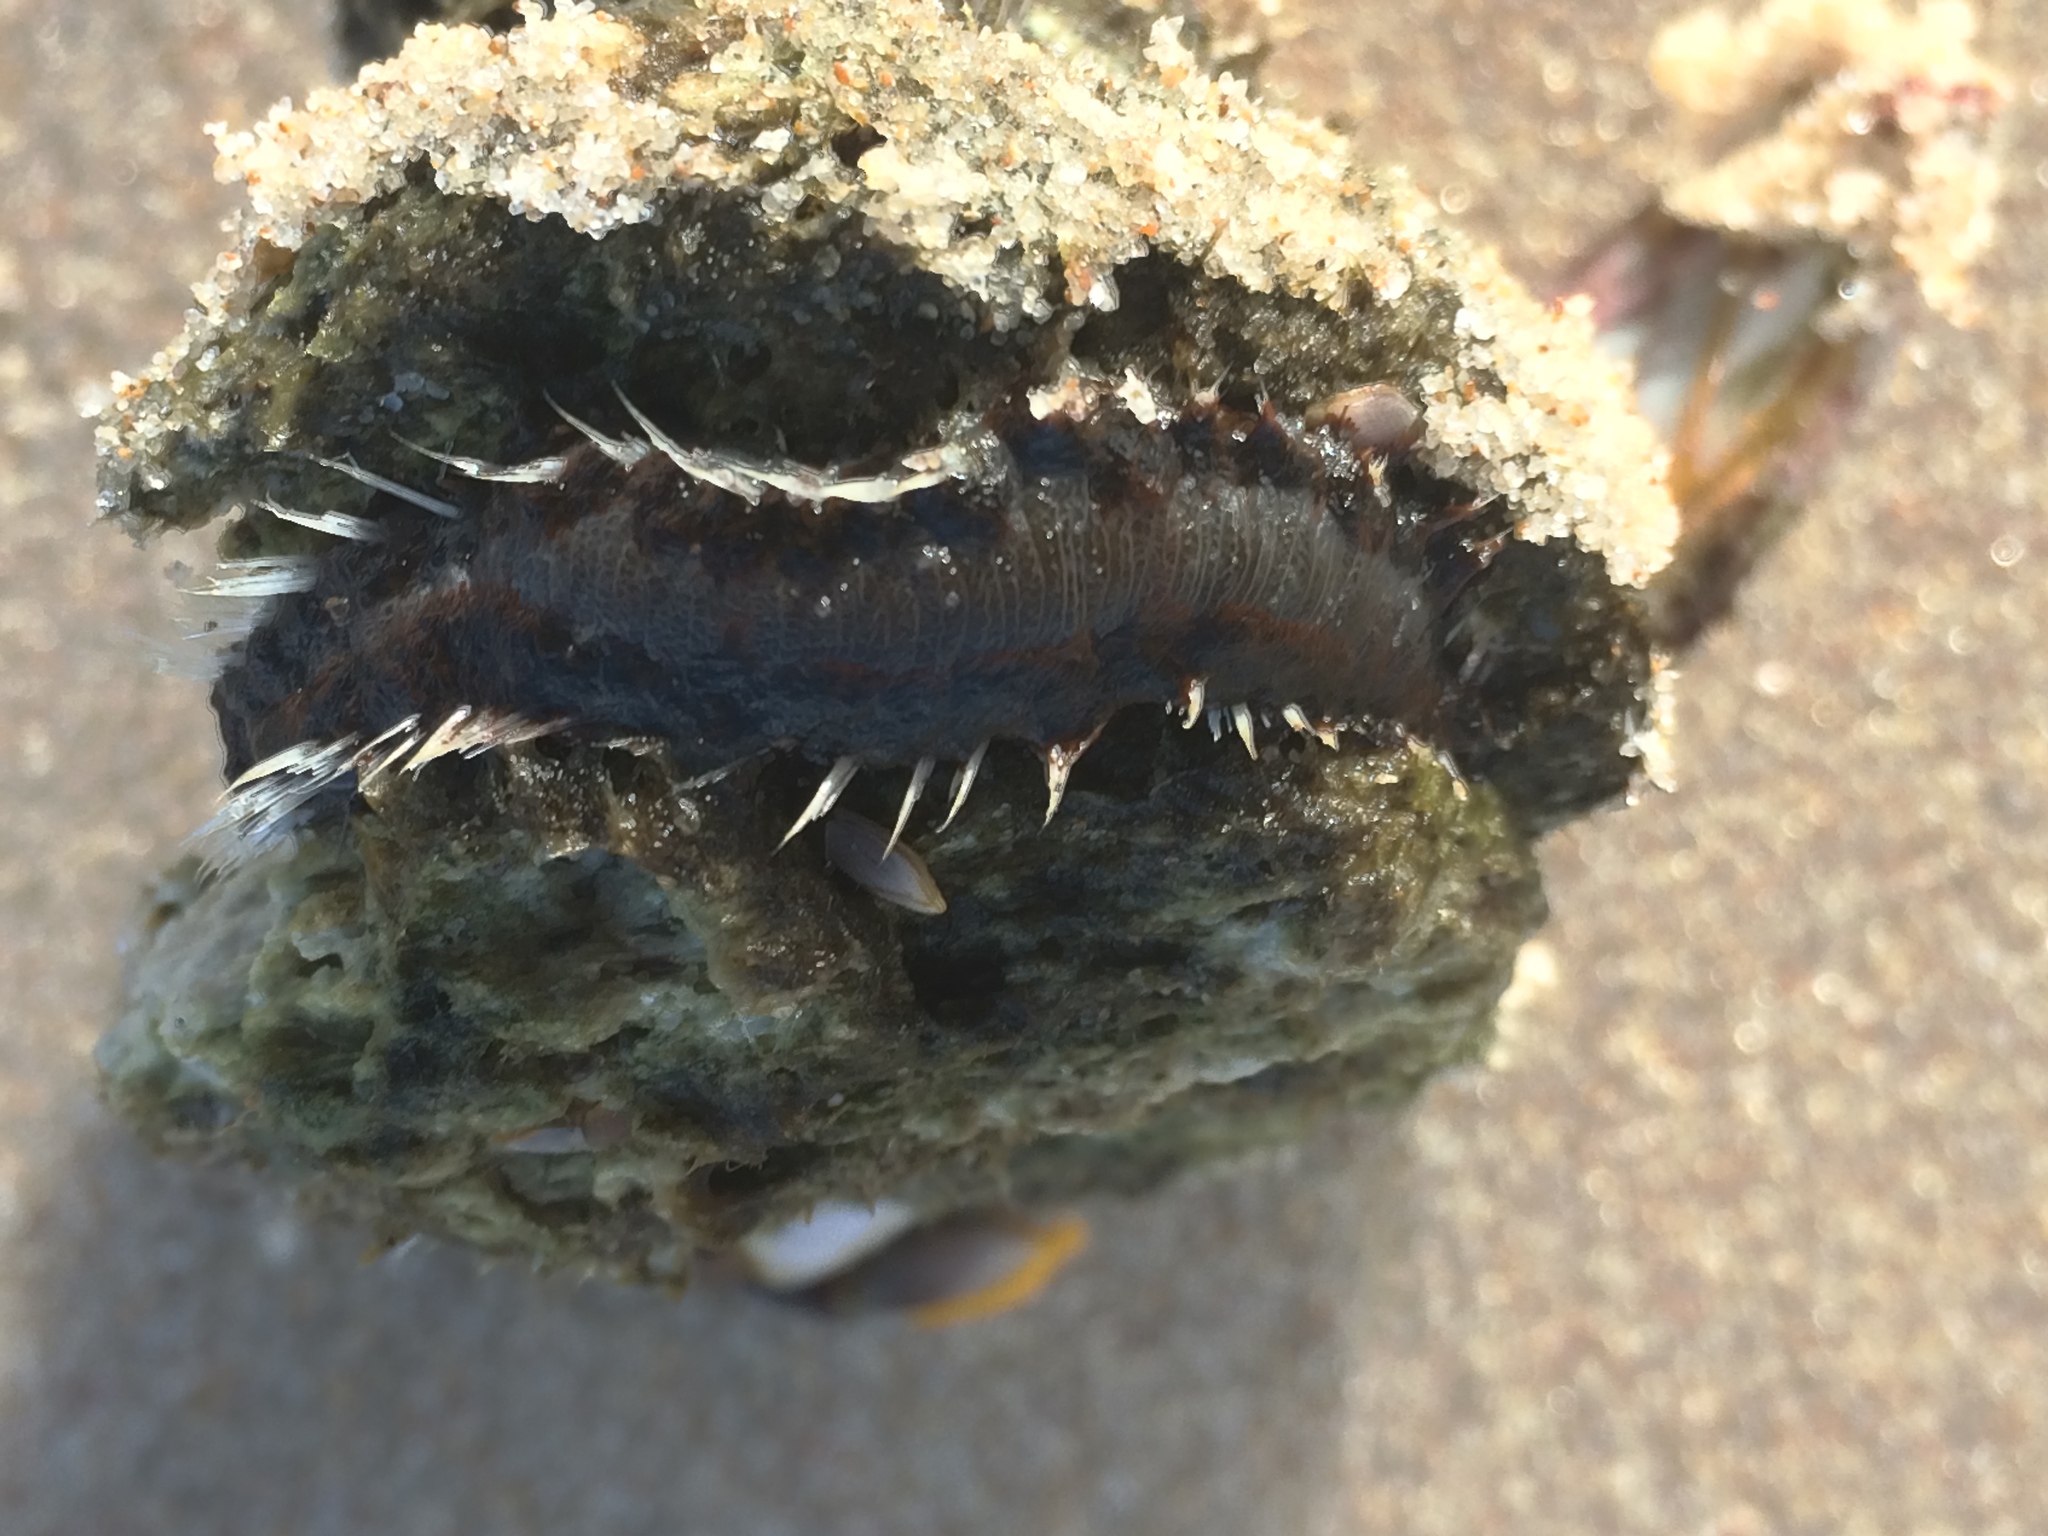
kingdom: Animalia
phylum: Annelida
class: Polychaeta
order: Amphinomida
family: Amphinomidae
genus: Amphinome
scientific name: Amphinome rostrata
